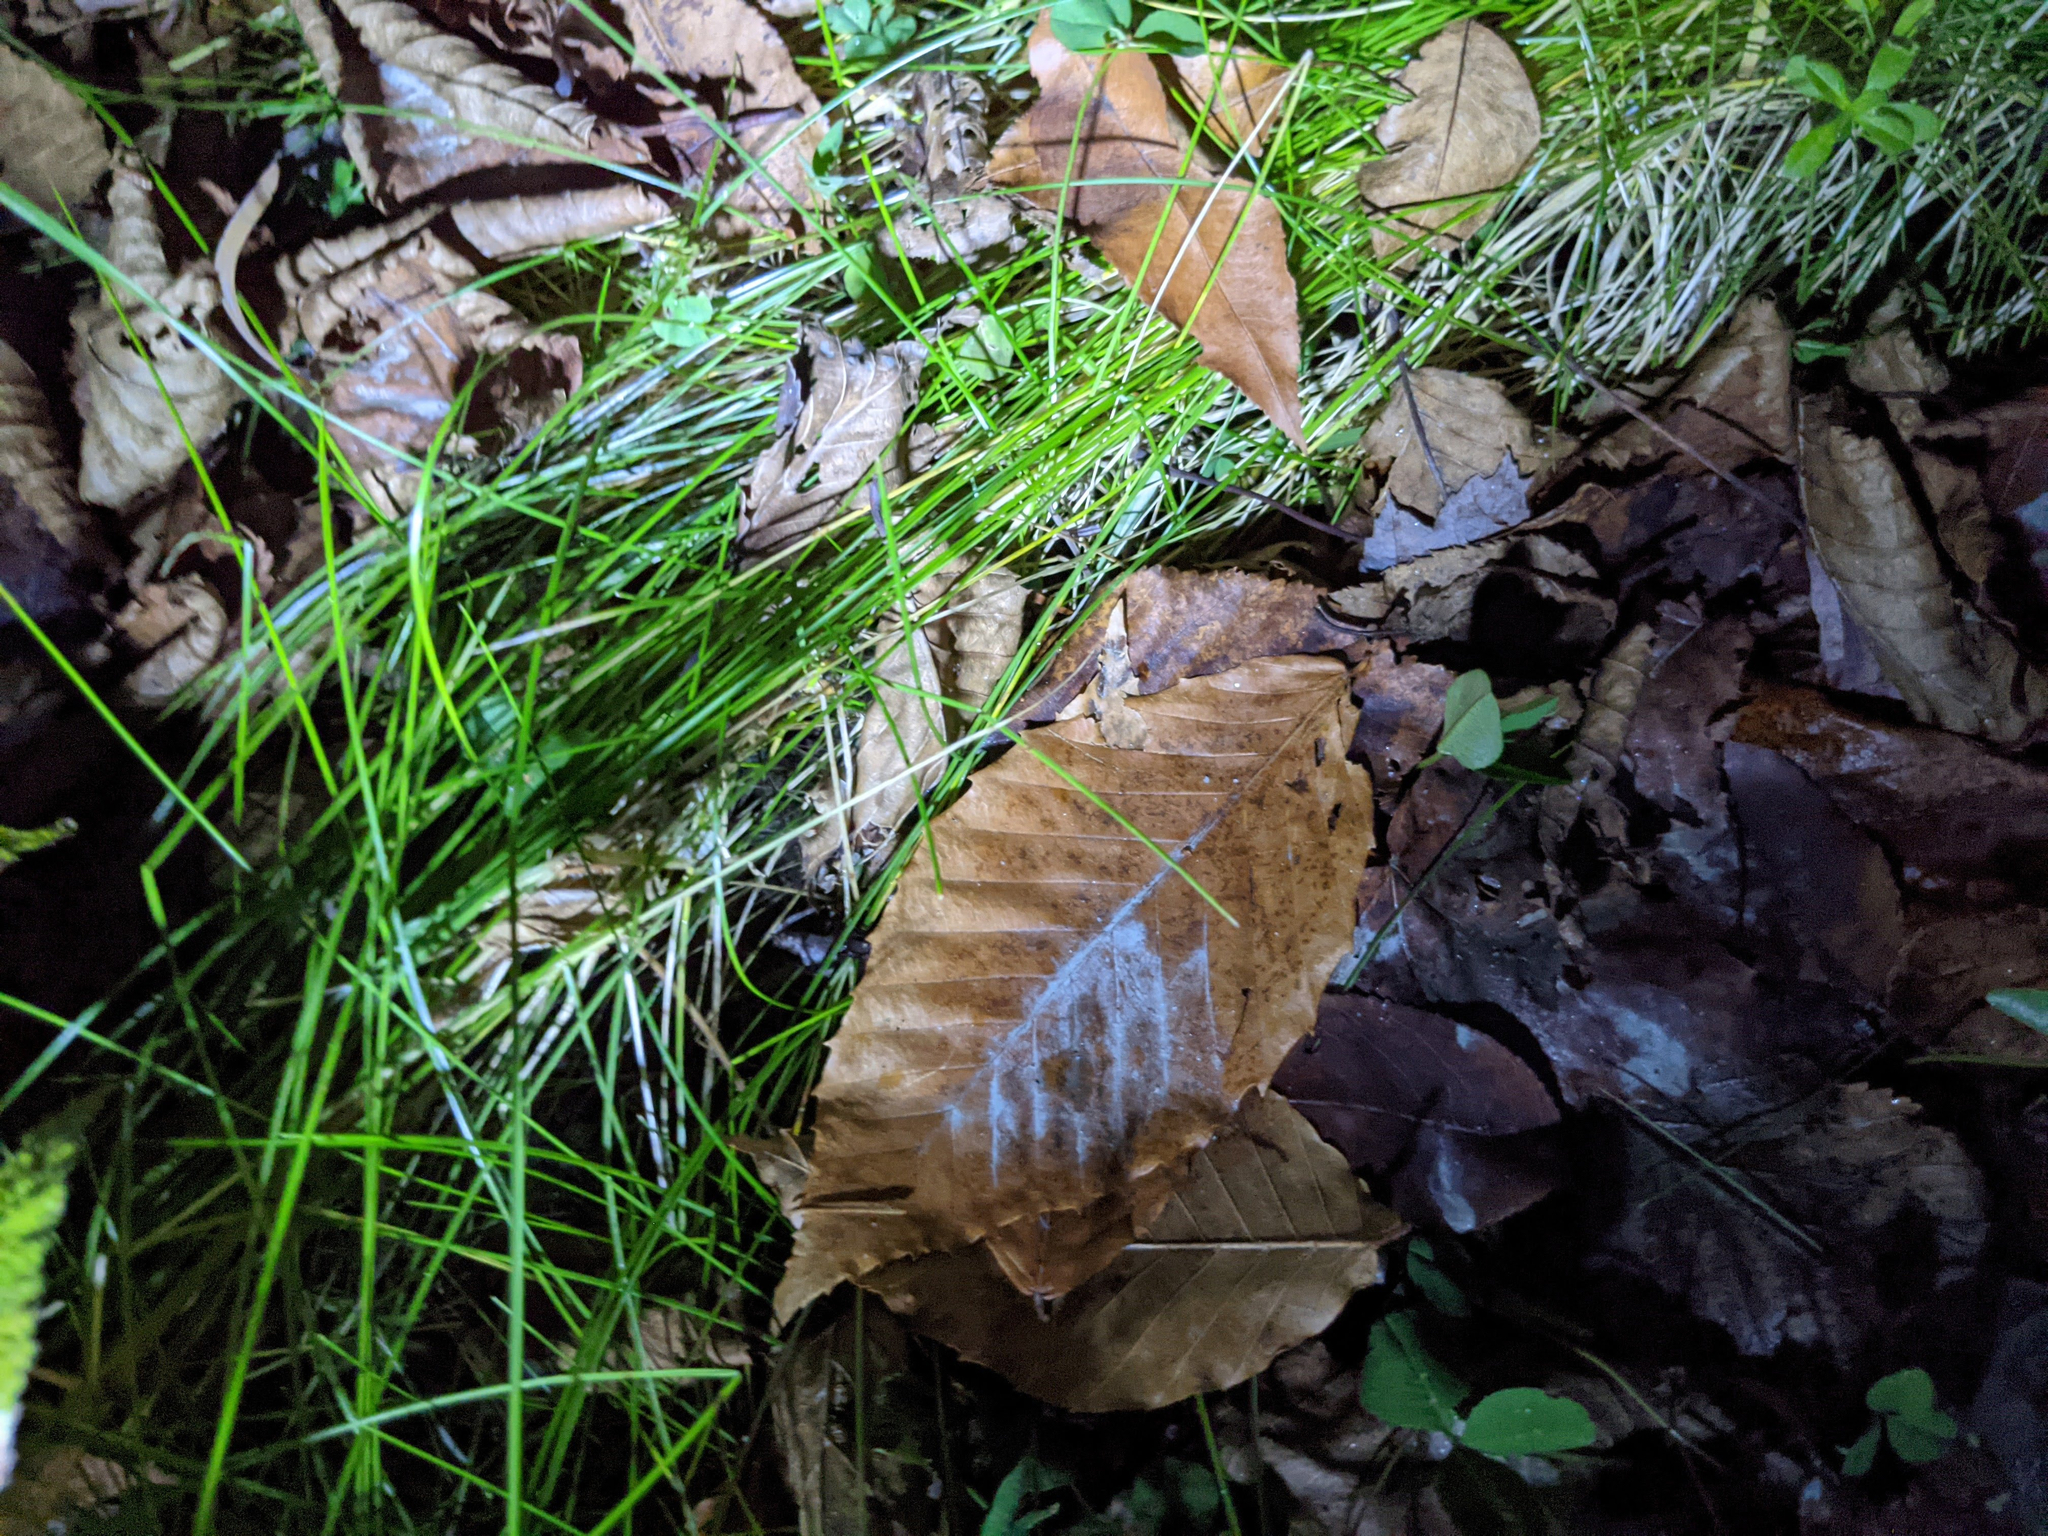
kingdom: Plantae
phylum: Tracheophyta
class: Magnoliopsida
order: Fagales
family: Fagaceae
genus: Fagus
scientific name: Fagus grandifolia
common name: American beech
